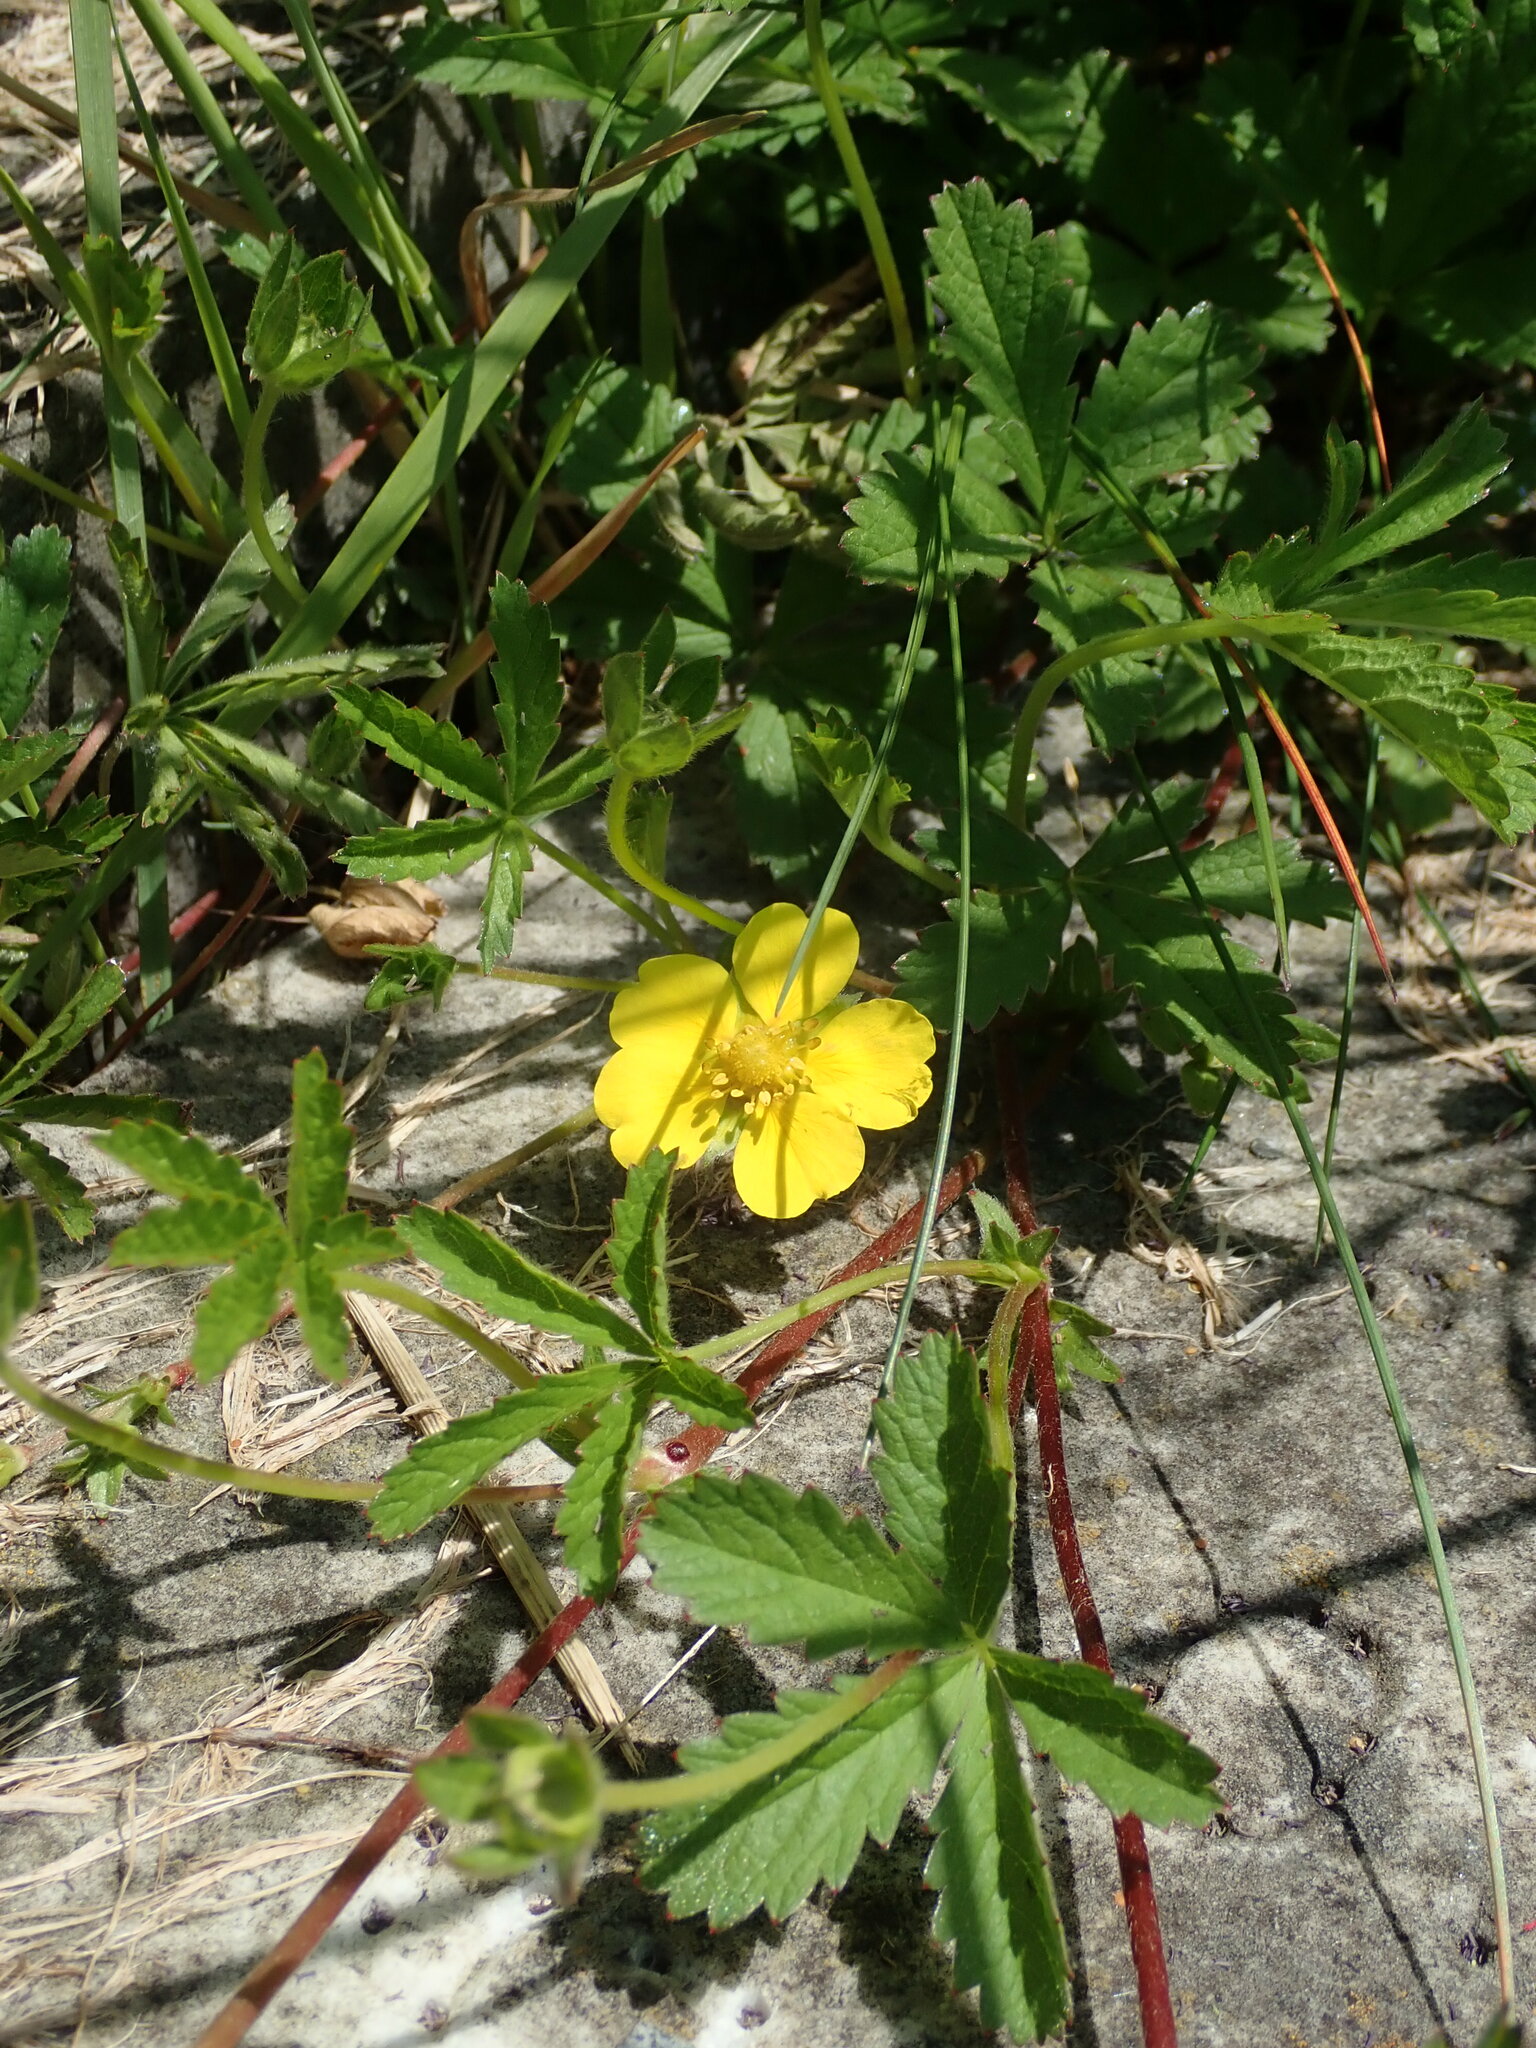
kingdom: Plantae
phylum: Tracheophyta
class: Magnoliopsida
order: Rosales
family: Rosaceae
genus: Potentilla
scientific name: Potentilla reptans
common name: Creeping cinquefoil
